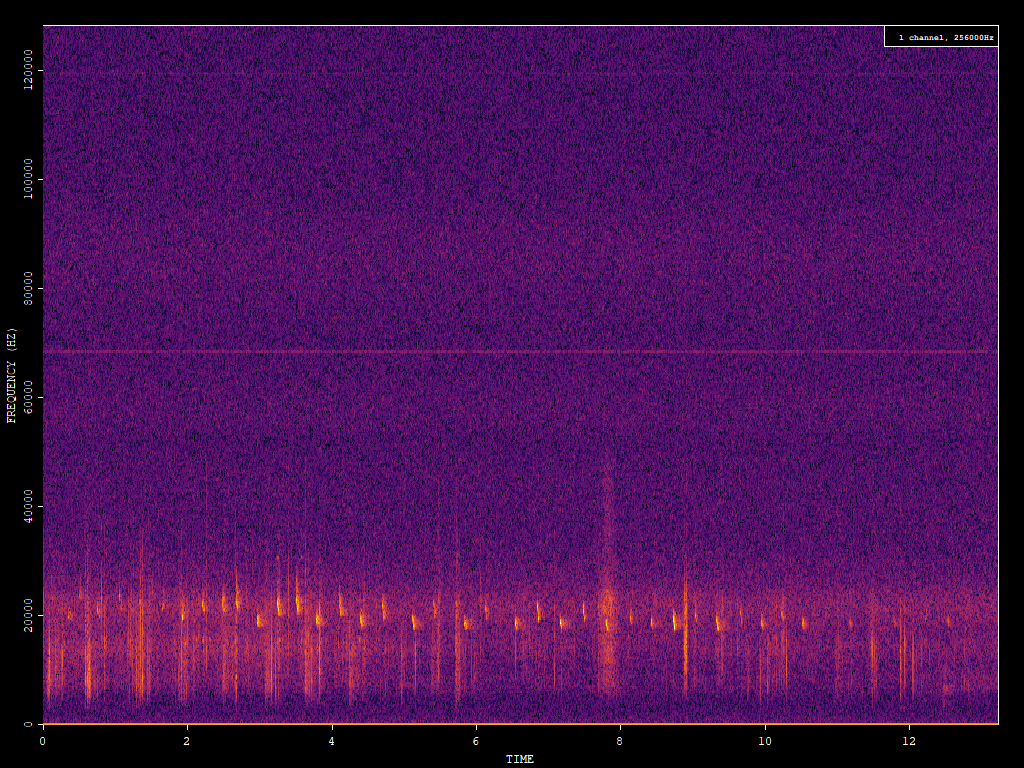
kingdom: Animalia
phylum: Chordata
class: Mammalia
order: Chiroptera
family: Vespertilionidae
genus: Nyctalus
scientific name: Nyctalus noctula
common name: Noctule
